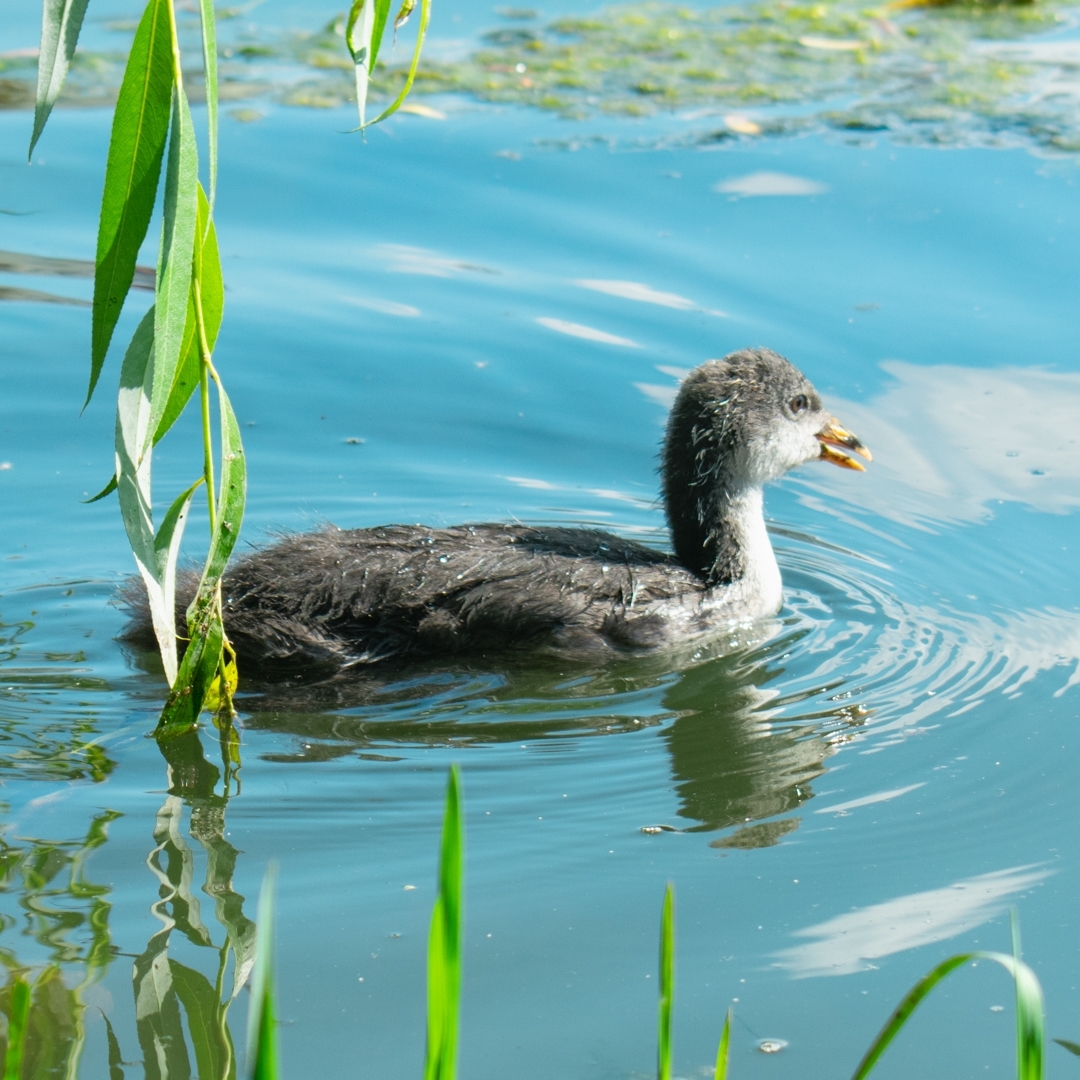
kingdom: Animalia
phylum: Chordata
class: Aves
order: Gruiformes
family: Rallidae
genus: Fulica
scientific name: Fulica atra
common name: Eurasian coot
